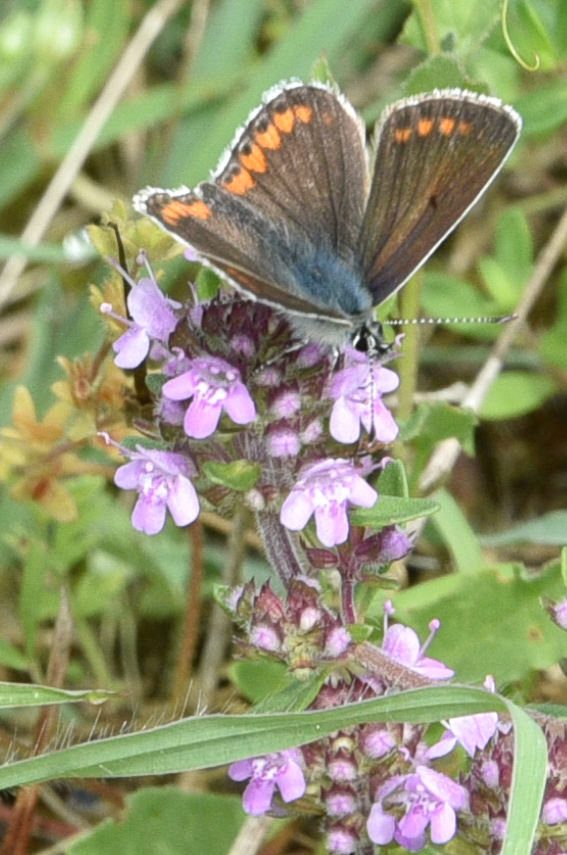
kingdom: Animalia
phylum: Arthropoda
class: Insecta
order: Lepidoptera
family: Lycaenidae
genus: Aricia
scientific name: Aricia agestis
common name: Brown argus
